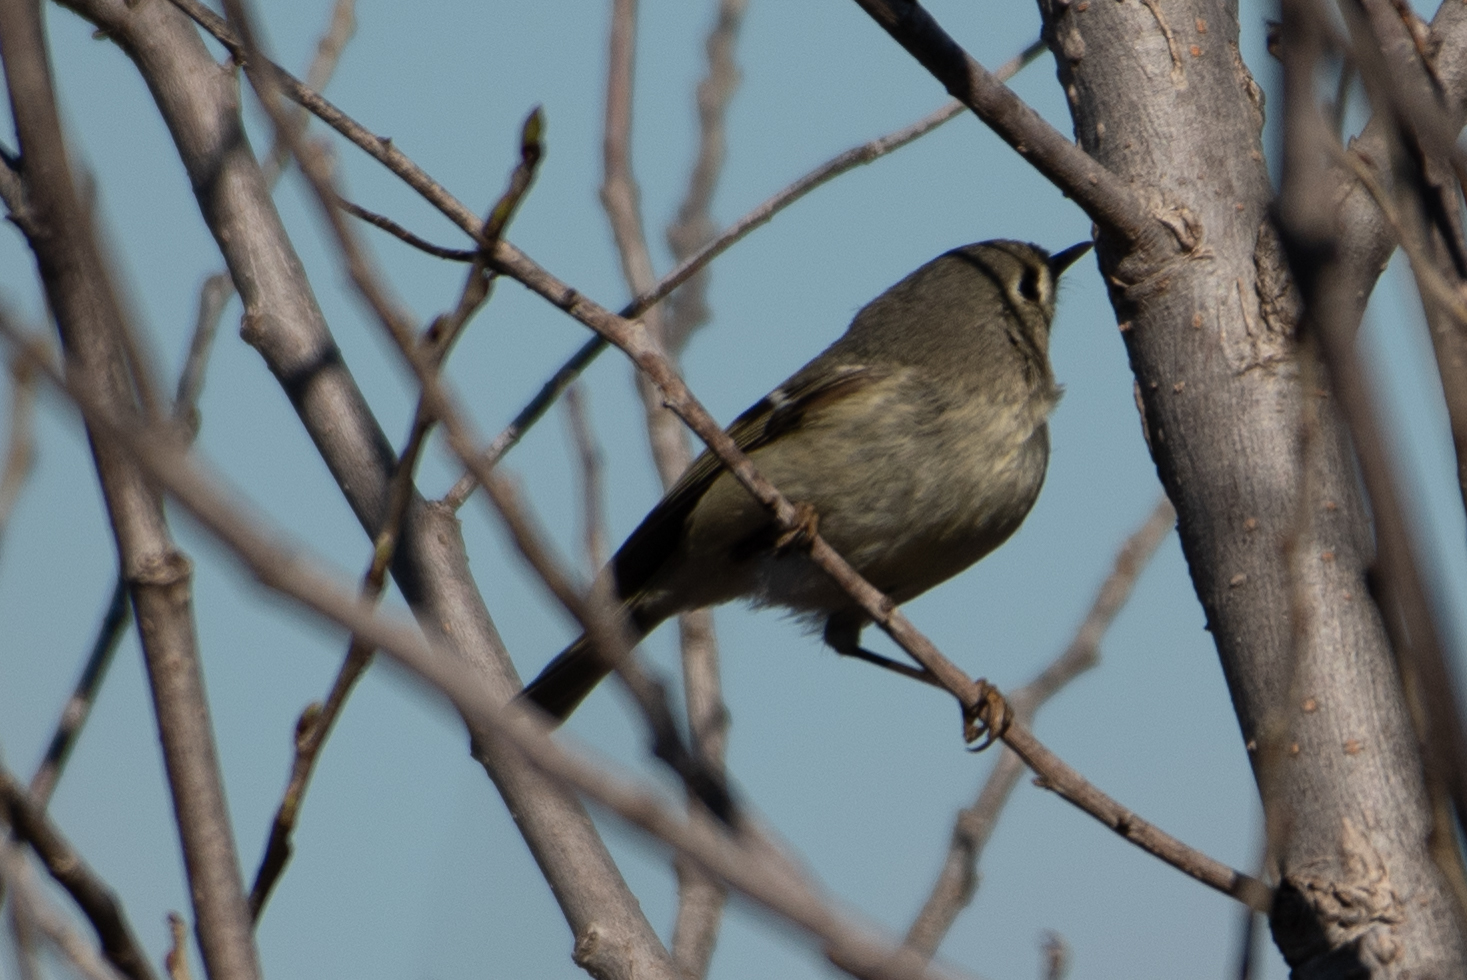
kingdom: Animalia
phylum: Chordata
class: Aves
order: Passeriformes
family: Regulidae
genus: Regulus
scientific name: Regulus calendula
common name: Ruby-crowned kinglet
